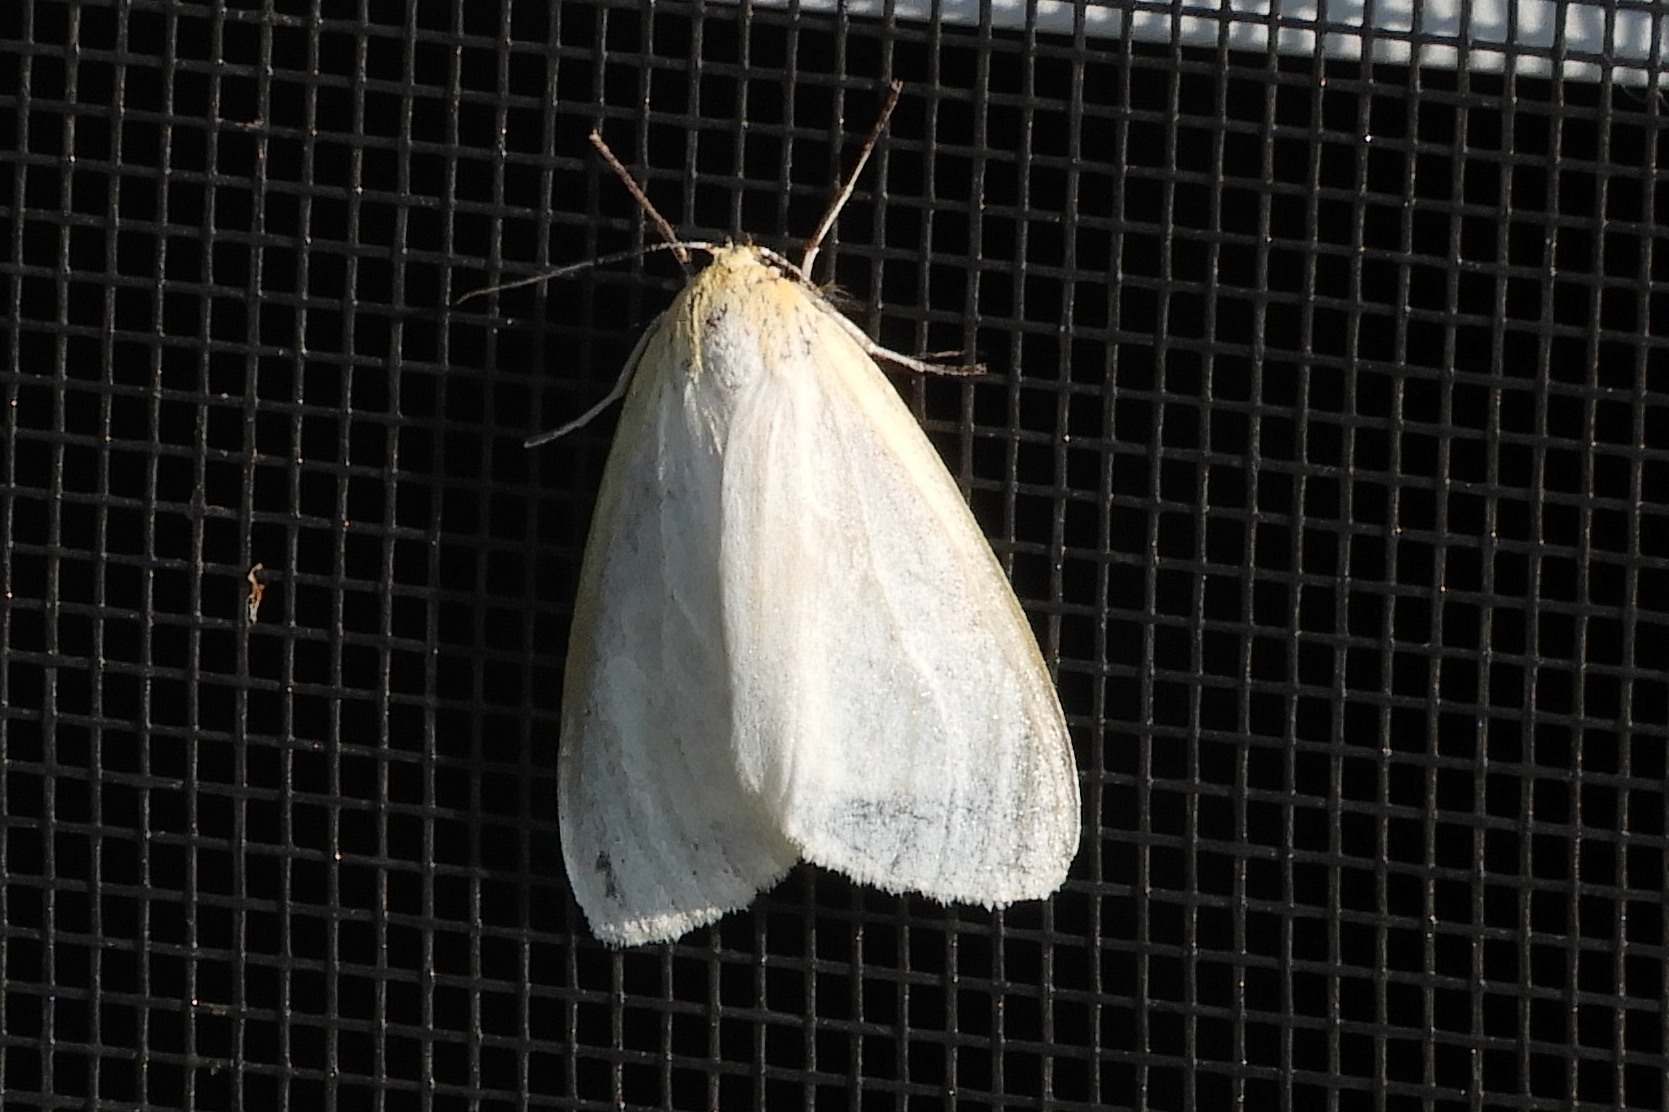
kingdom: Animalia
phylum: Arthropoda
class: Insecta
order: Lepidoptera
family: Erebidae
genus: Cycnia
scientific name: Cycnia tenera
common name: Delicate cycnia moth
